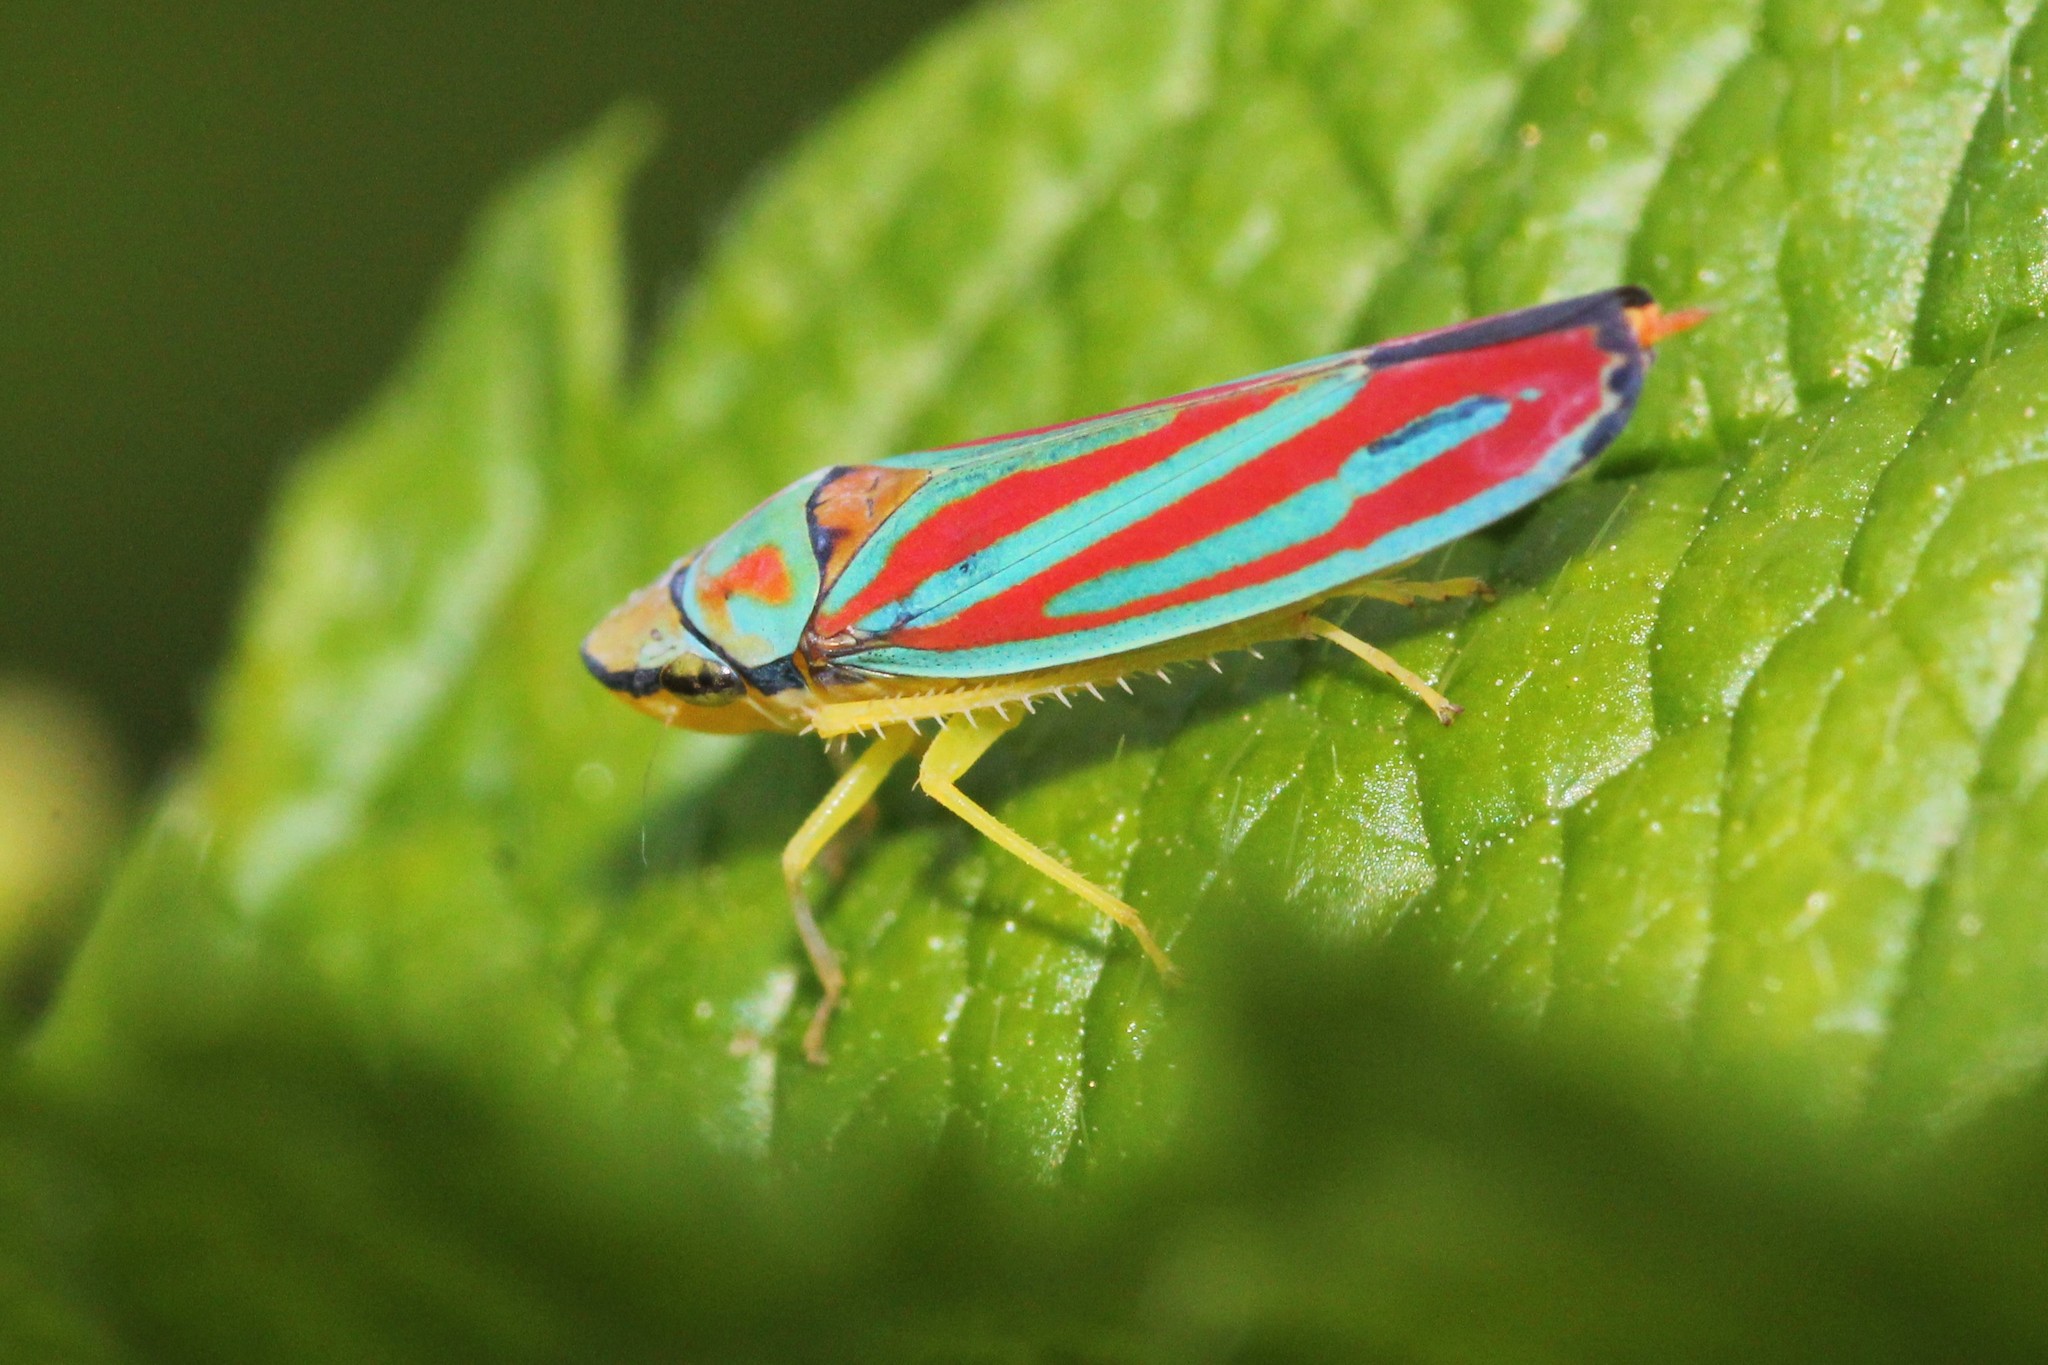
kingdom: Animalia
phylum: Arthropoda
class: Insecta
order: Hemiptera
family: Cicadellidae
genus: Graphocephala
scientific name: Graphocephala coccinea
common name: Candy-striped leafhopper
